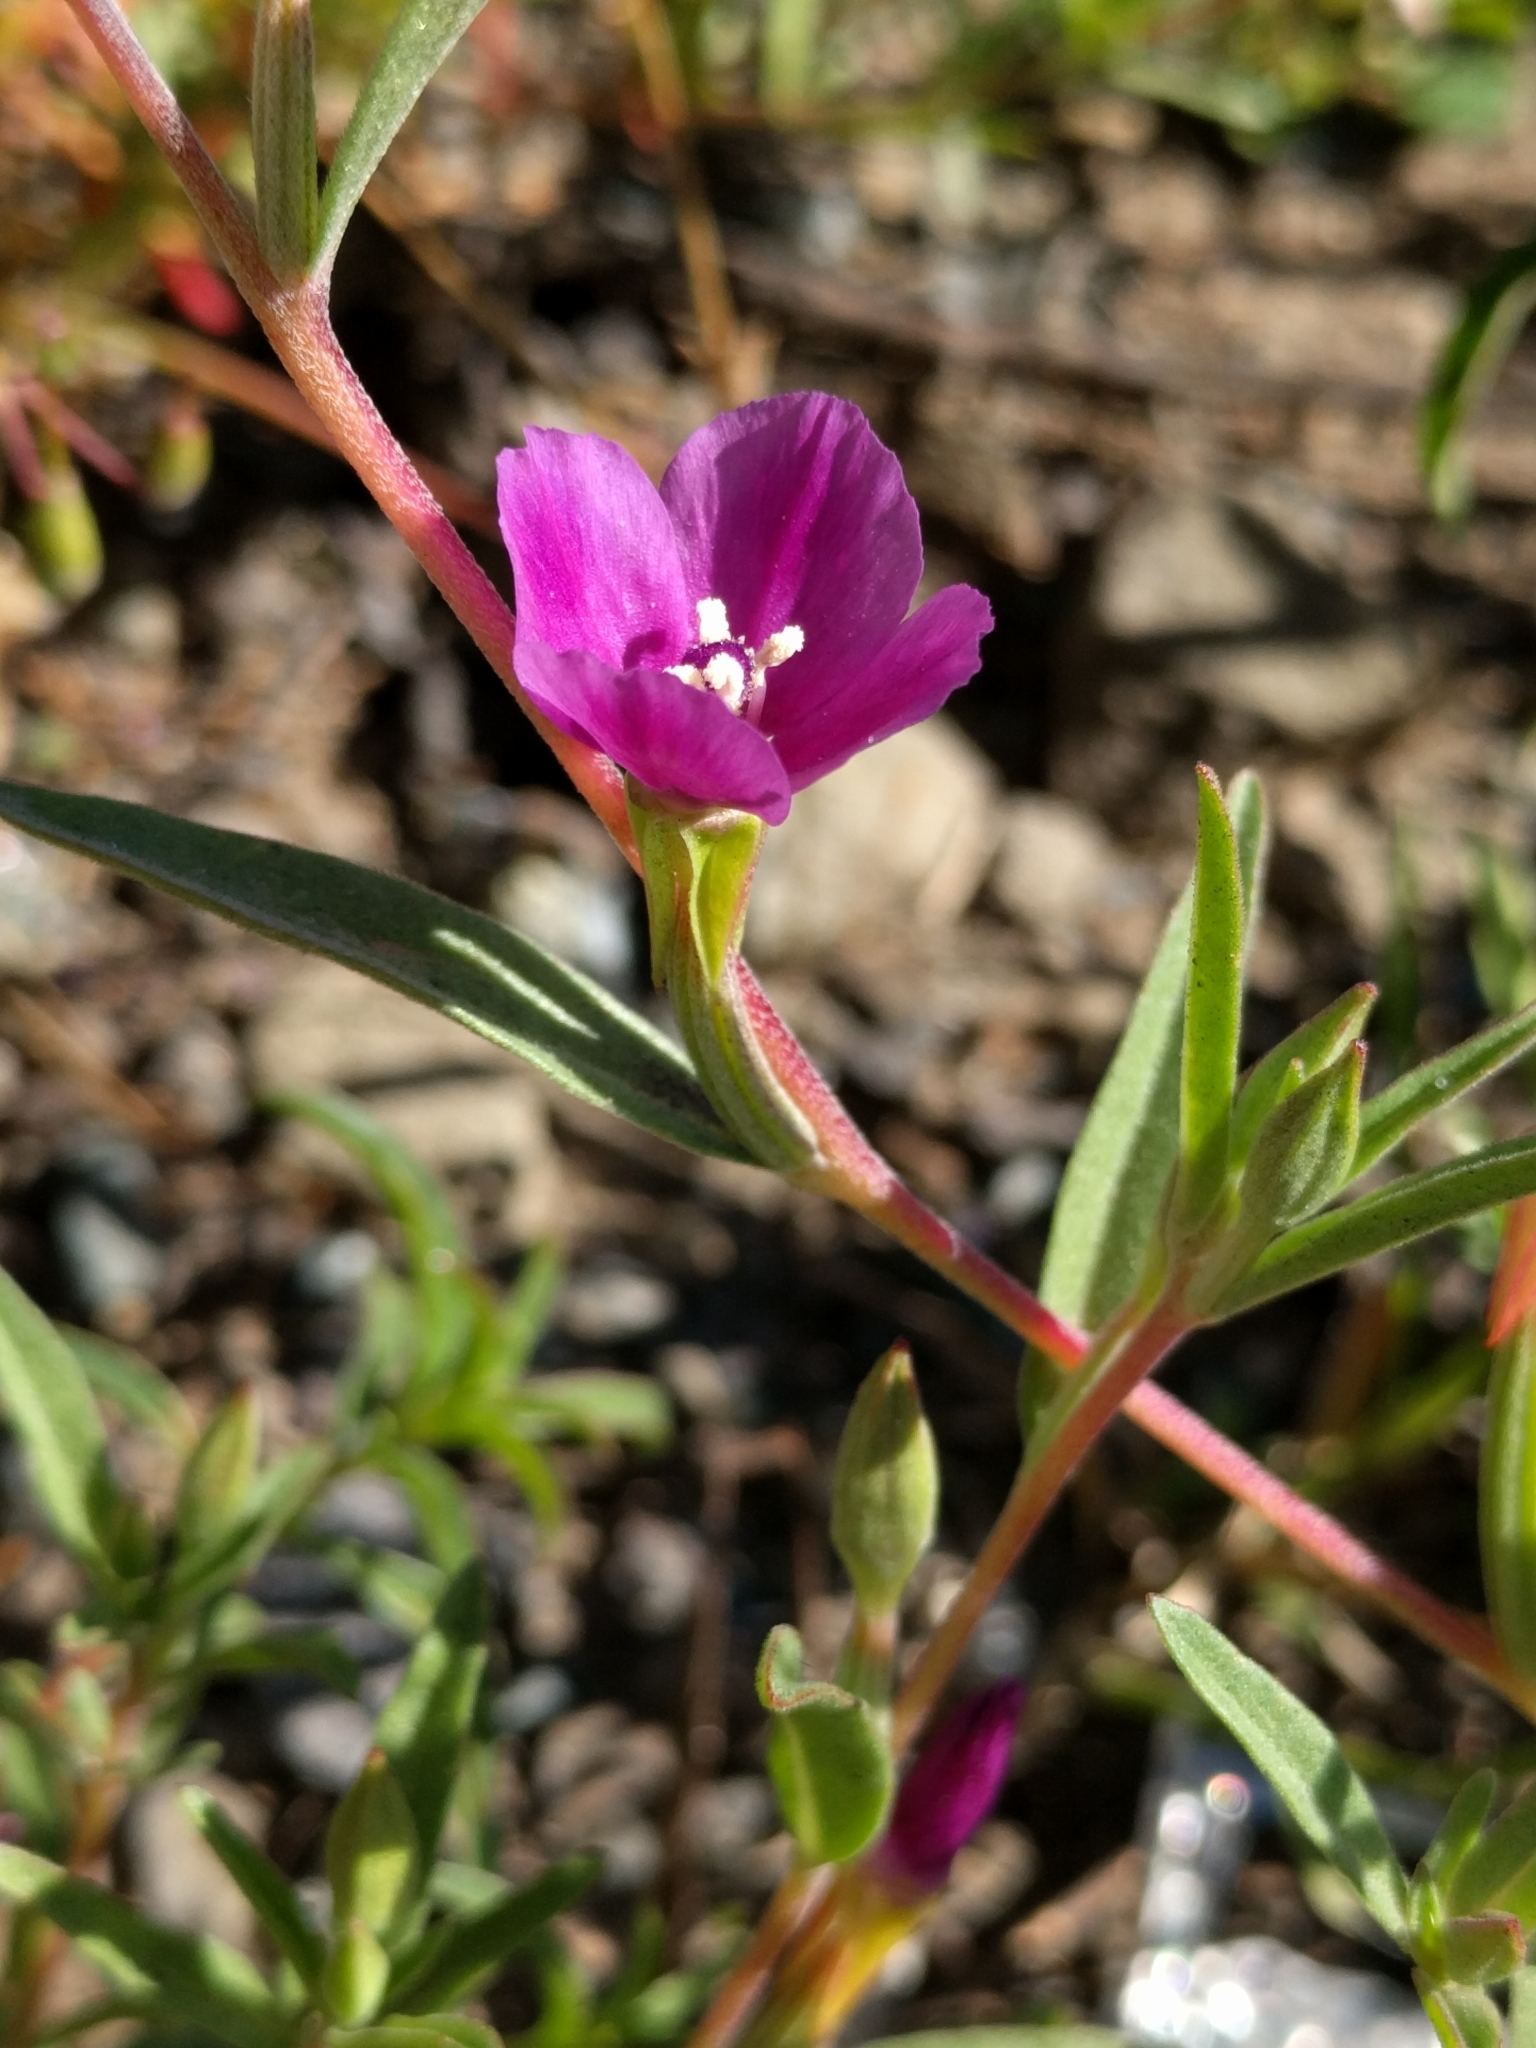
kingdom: Plantae
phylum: Tracheophyta
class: Magnoliopsida
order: Myrtales
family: Onagraceae
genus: Clarkia
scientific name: Clarkia purpurea
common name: Purple clarkia
